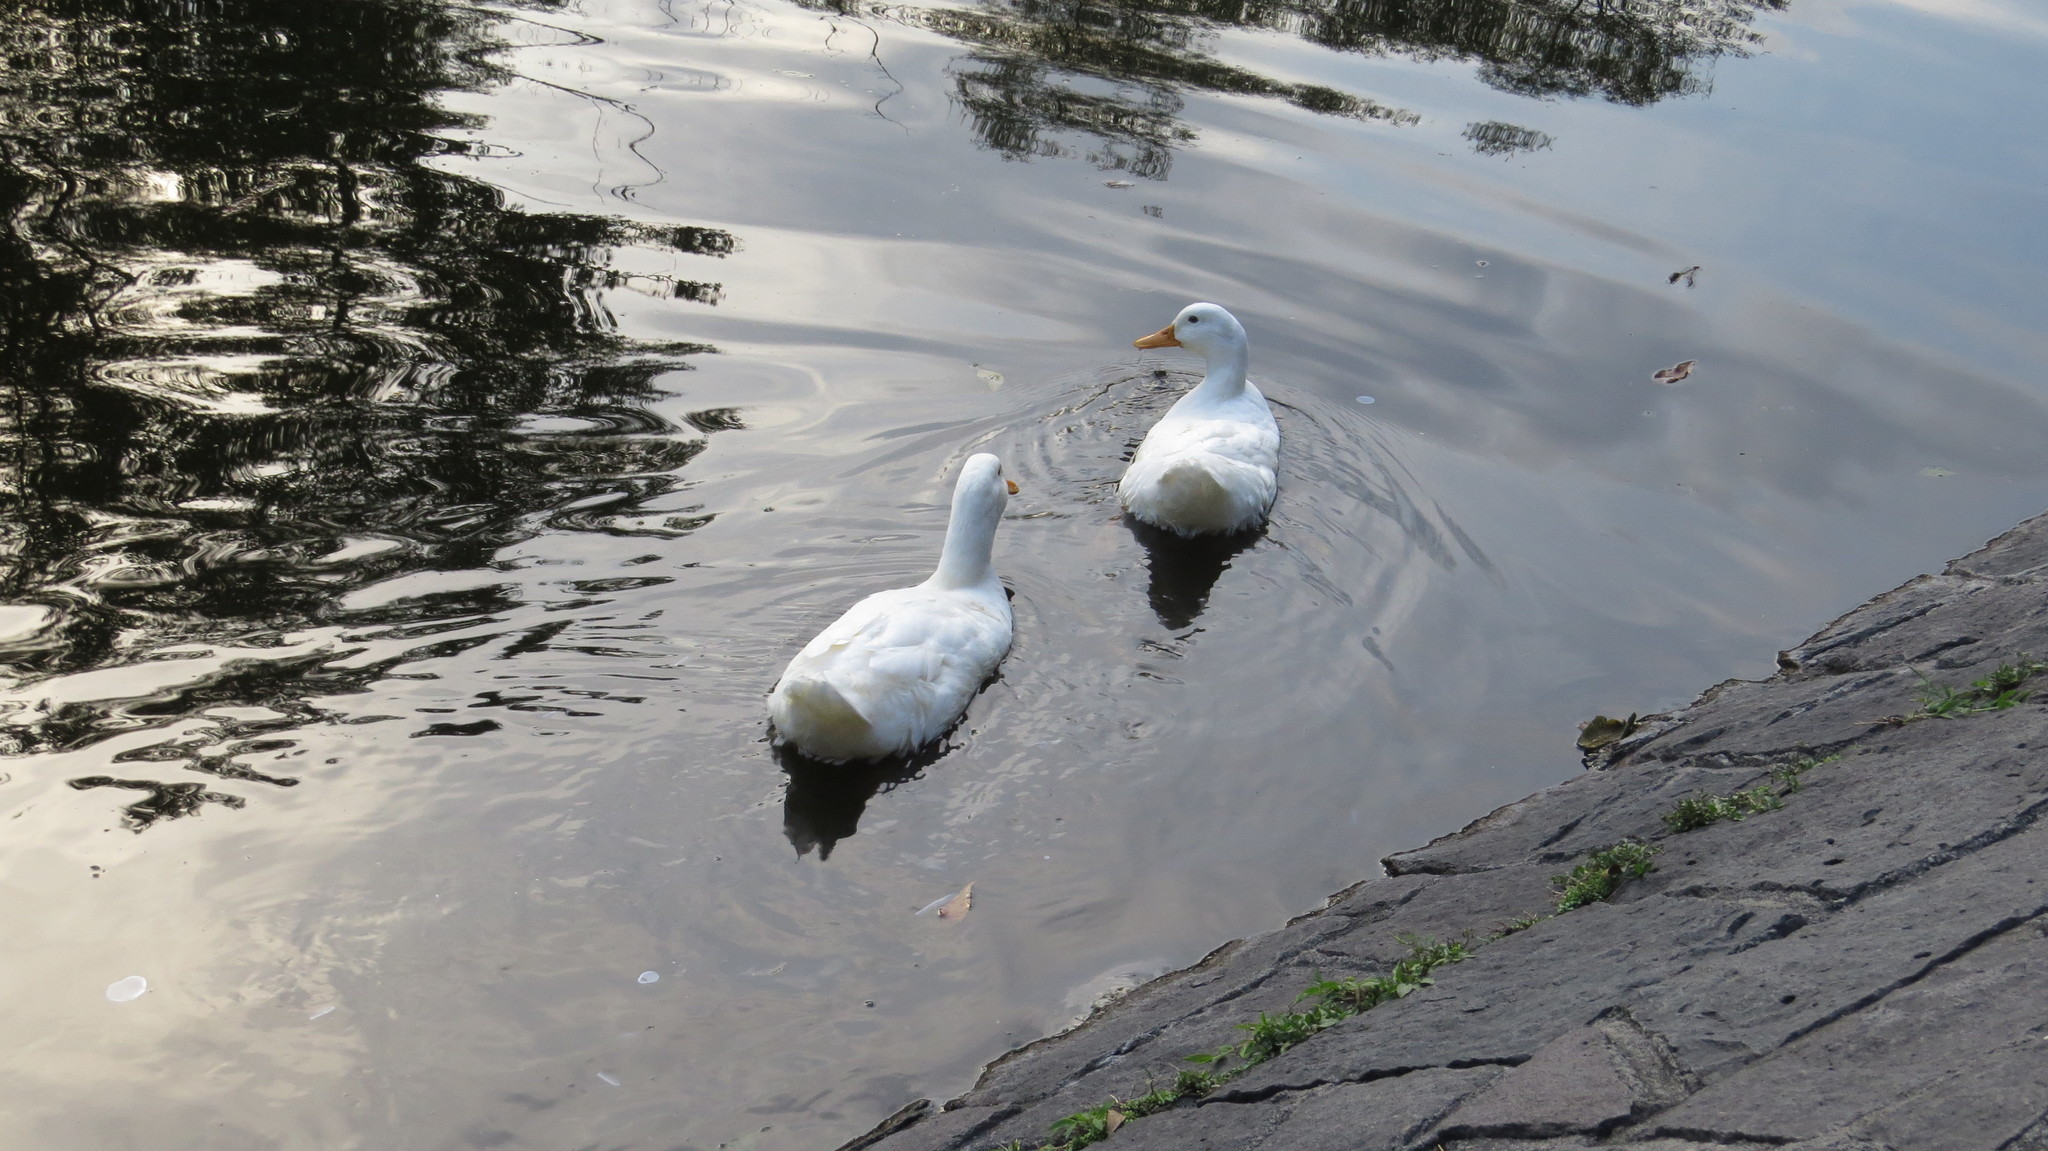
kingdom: Animalia
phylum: Chordata
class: Aves
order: Anseriformes
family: Anatidae
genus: Anas
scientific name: Anas platyrhynchos
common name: Mallard
